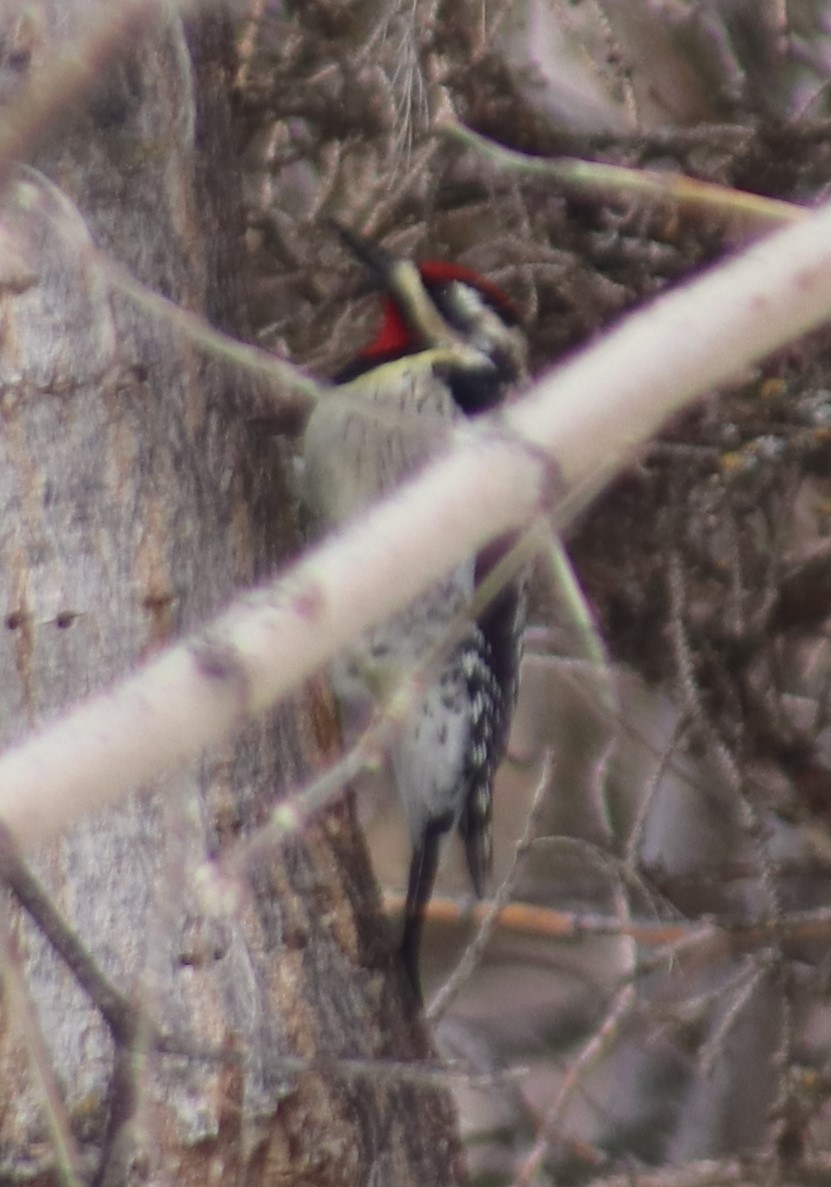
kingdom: Animalia
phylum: Chordata
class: Aves
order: Piciformes
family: Picidae
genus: Sphyrapicus
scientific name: Sphyrapicus varius
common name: Yellow-bellied sapsucker
